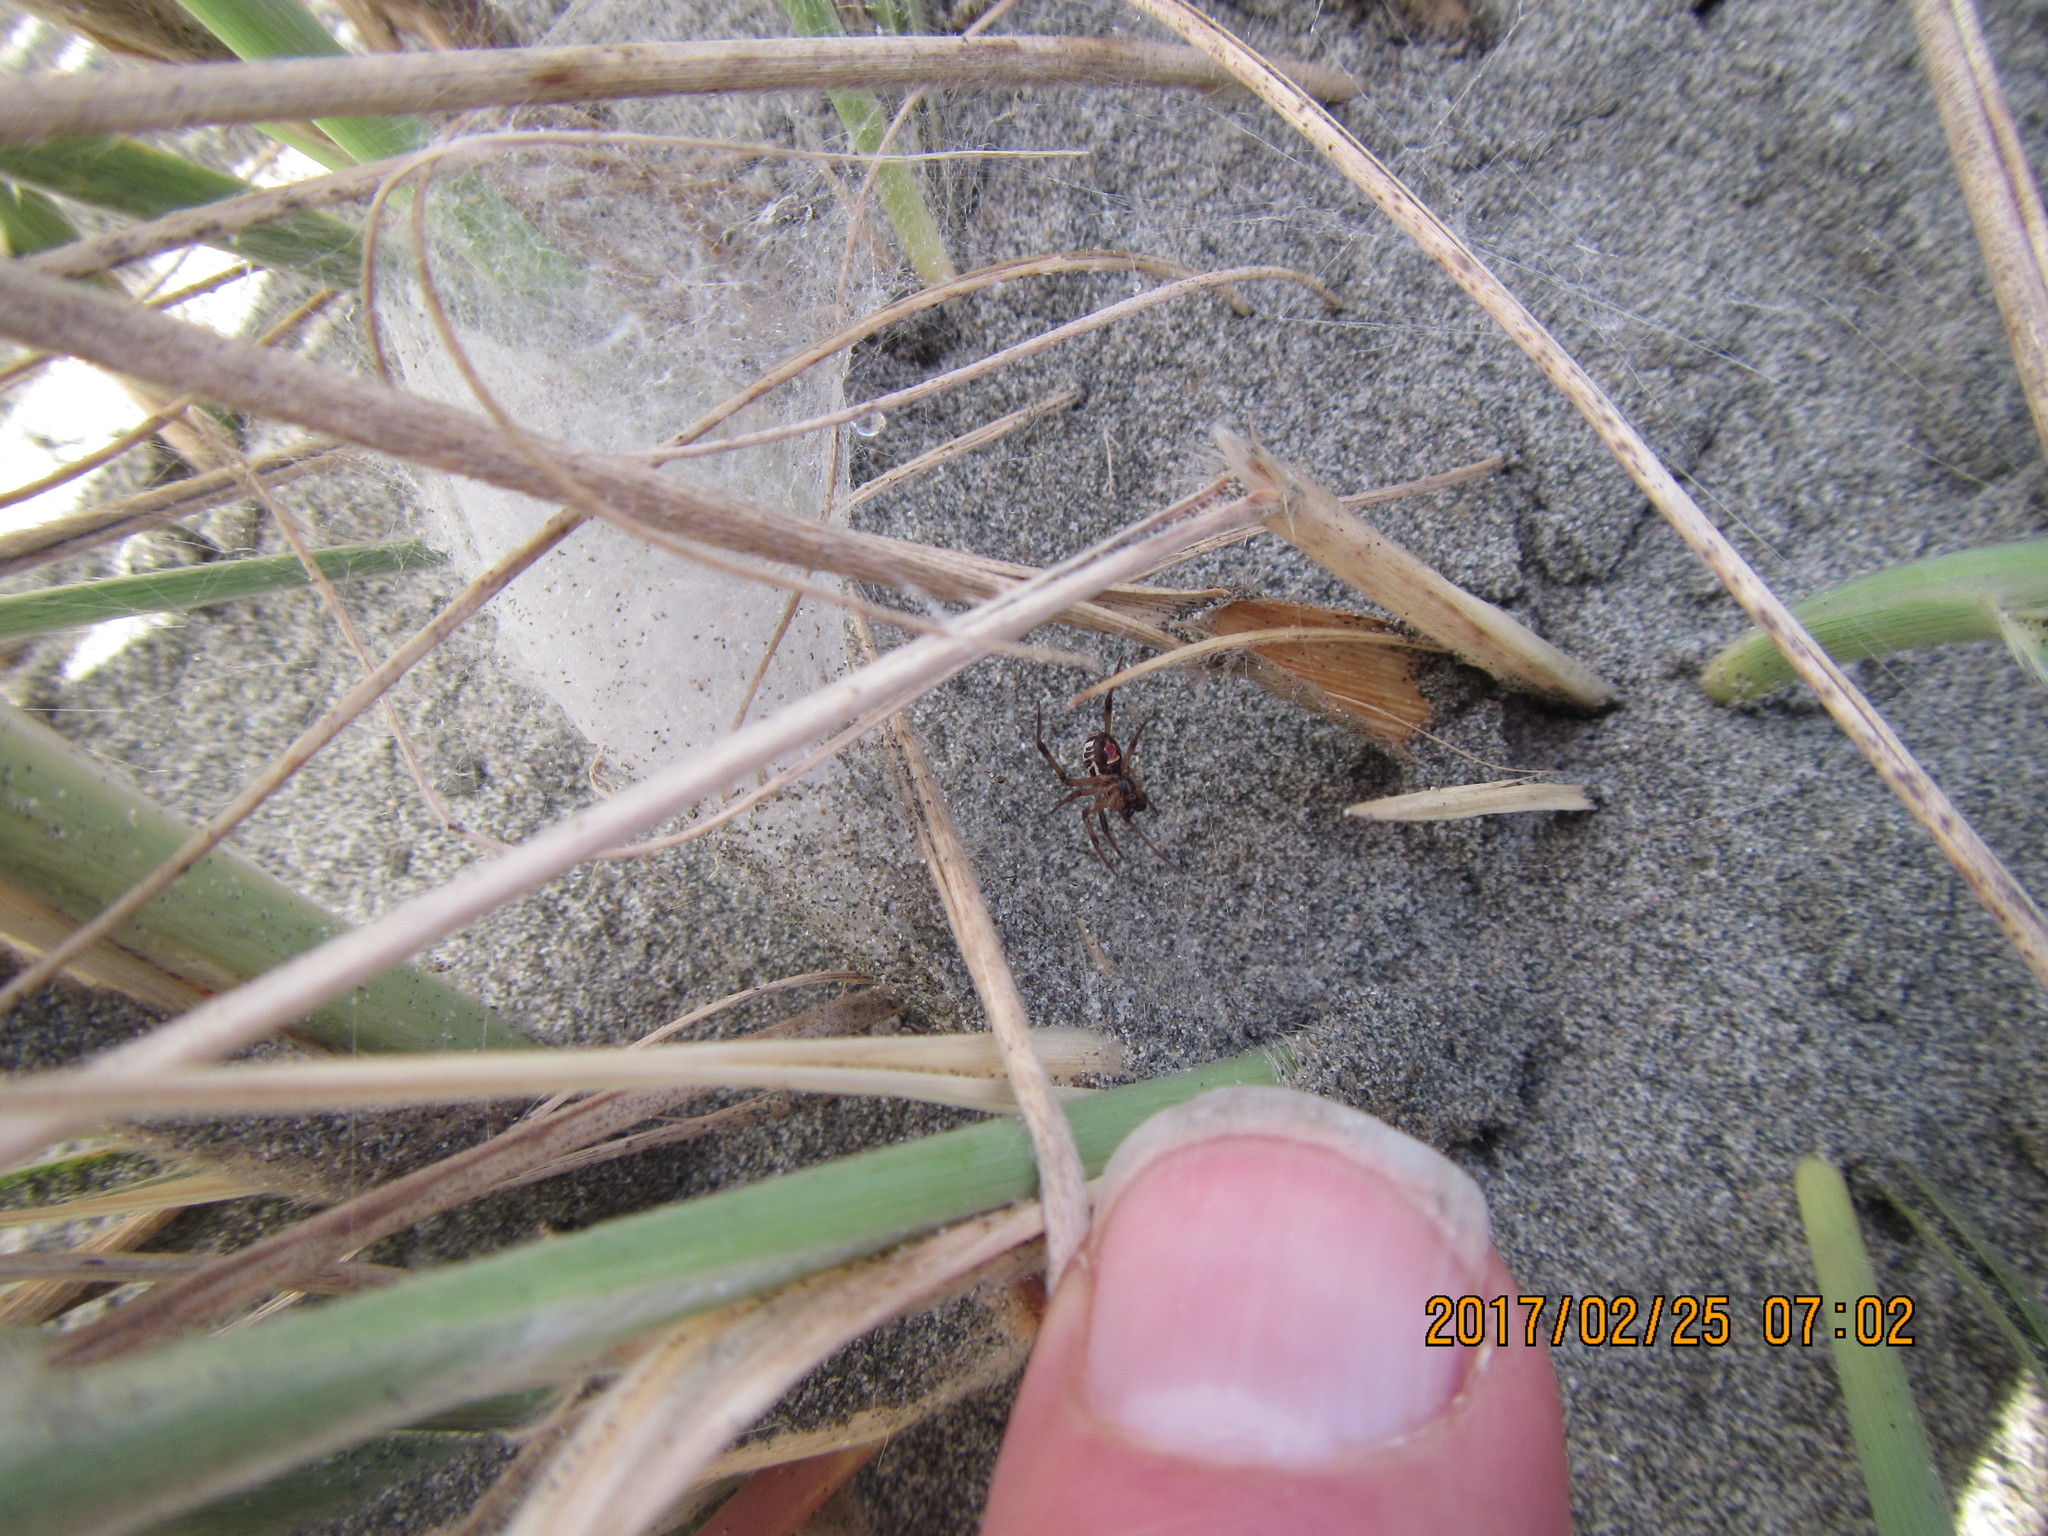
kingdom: Animalia
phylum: Arthropoda
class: Arachnida
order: Araneae
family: Theridiidae
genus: Latrodectus
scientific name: Latrodectus katipo
